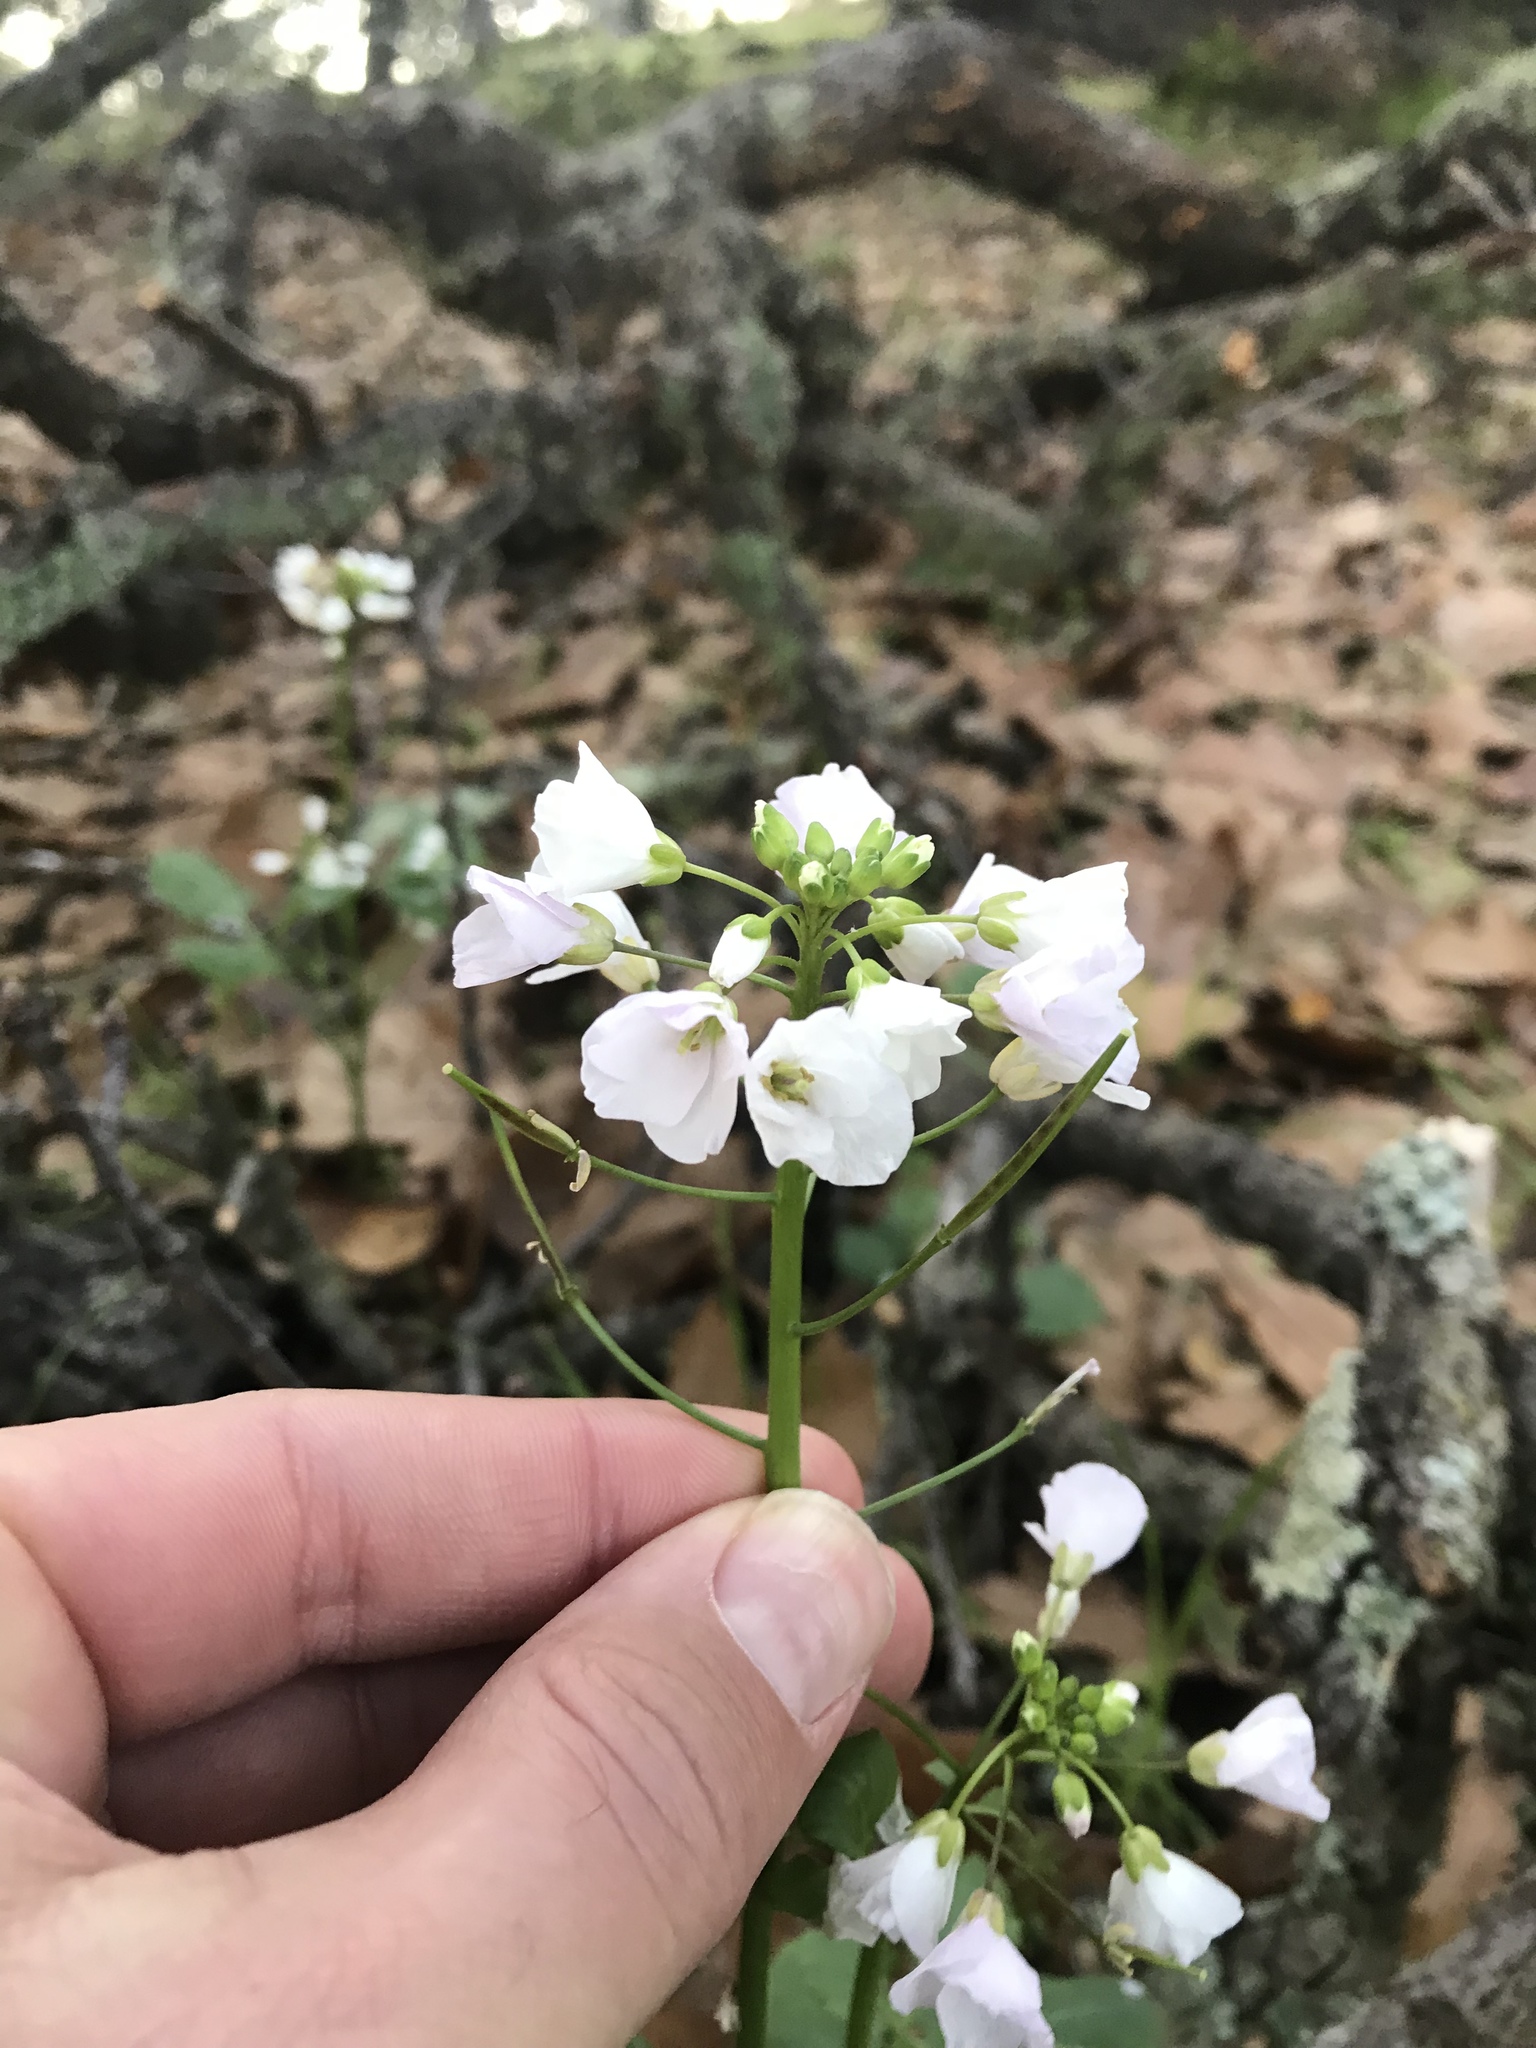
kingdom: Plantae
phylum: Tracheophyta
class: Magnoliopsida
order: Brassicales
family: Brassicaceae
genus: Cardamine
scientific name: Cardamine californica
